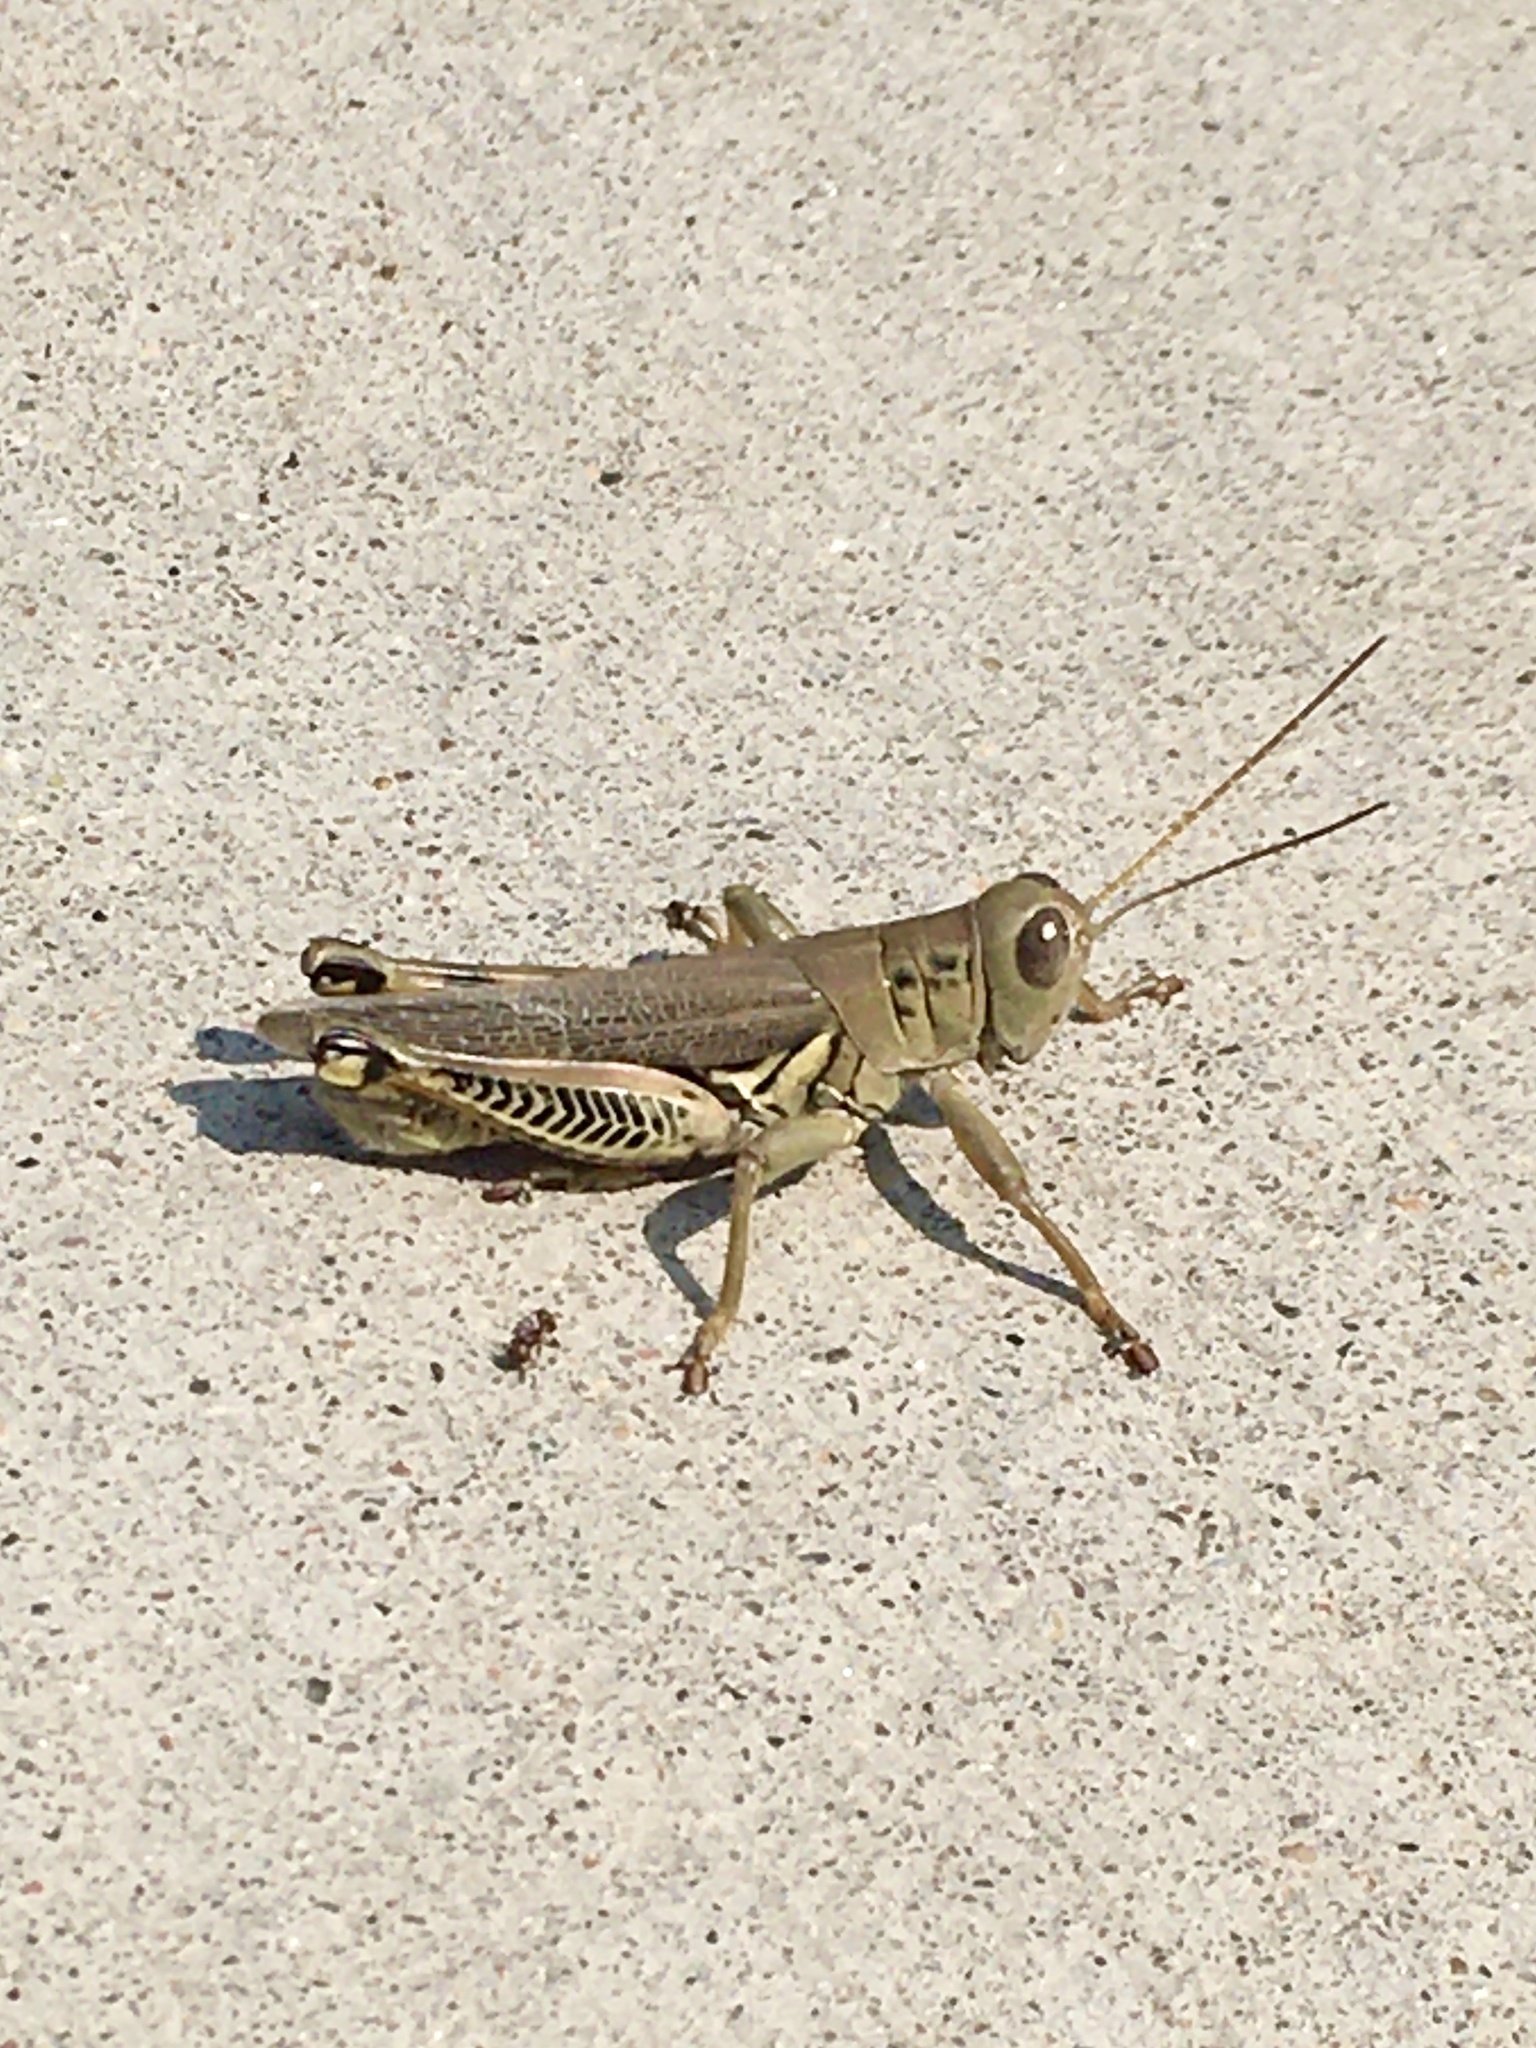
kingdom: Animalia
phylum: Arthropoda
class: Insecta
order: Orthoptera
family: Acrididae
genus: Melanoplus
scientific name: Melanoplus differentialis
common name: Differential grasshopper
